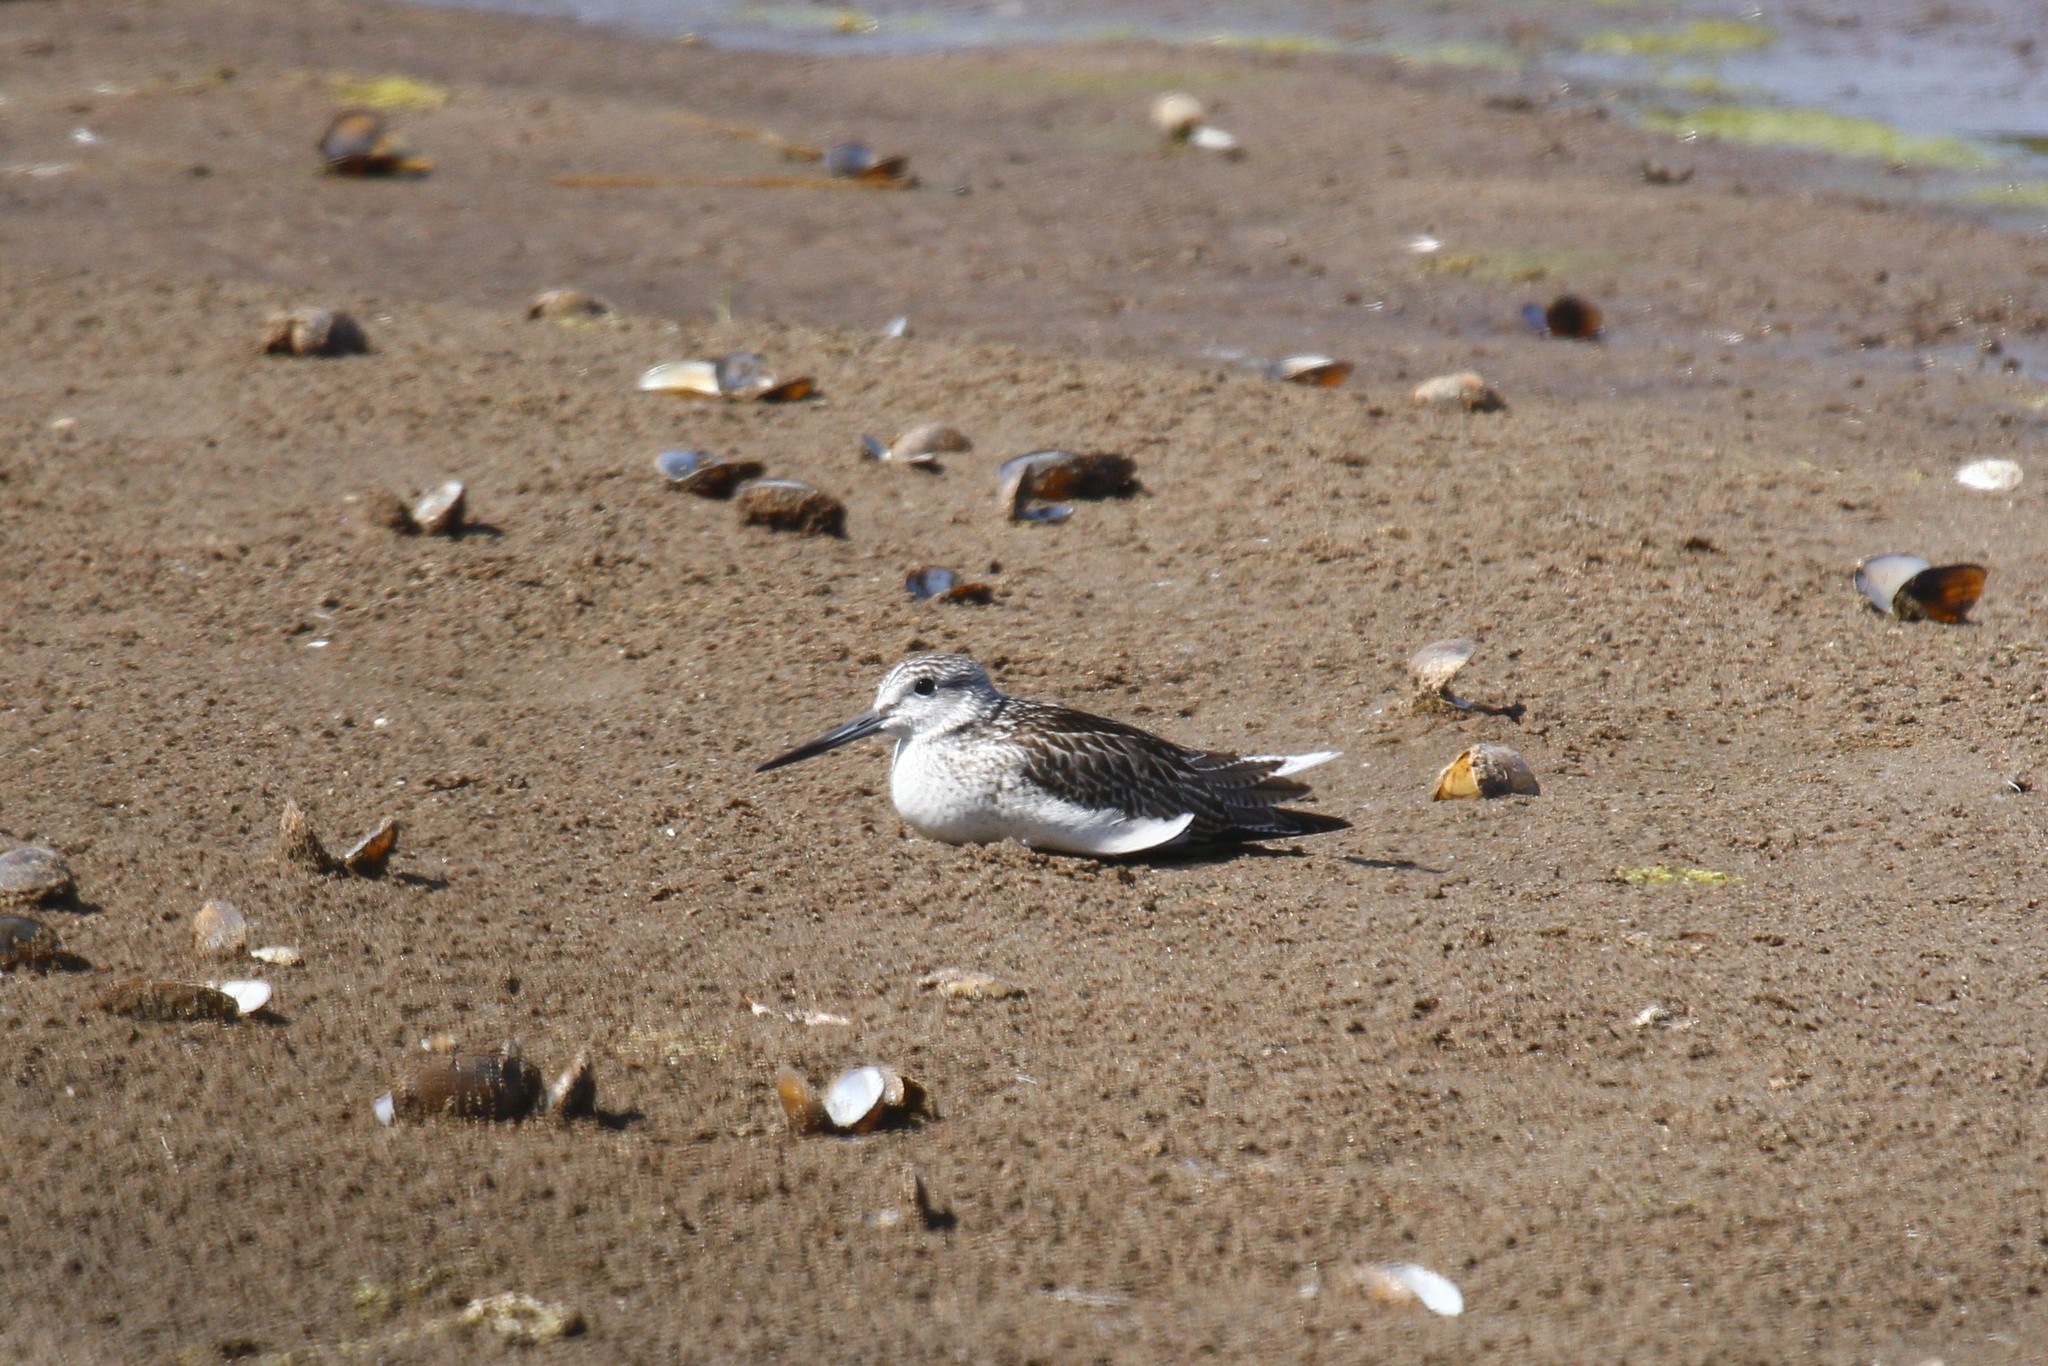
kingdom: Animalia
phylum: Chordata
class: Aves
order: Charadriiformes
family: Scolopacidae
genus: Tringa
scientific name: Tringa nebularia
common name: Common greenshank
